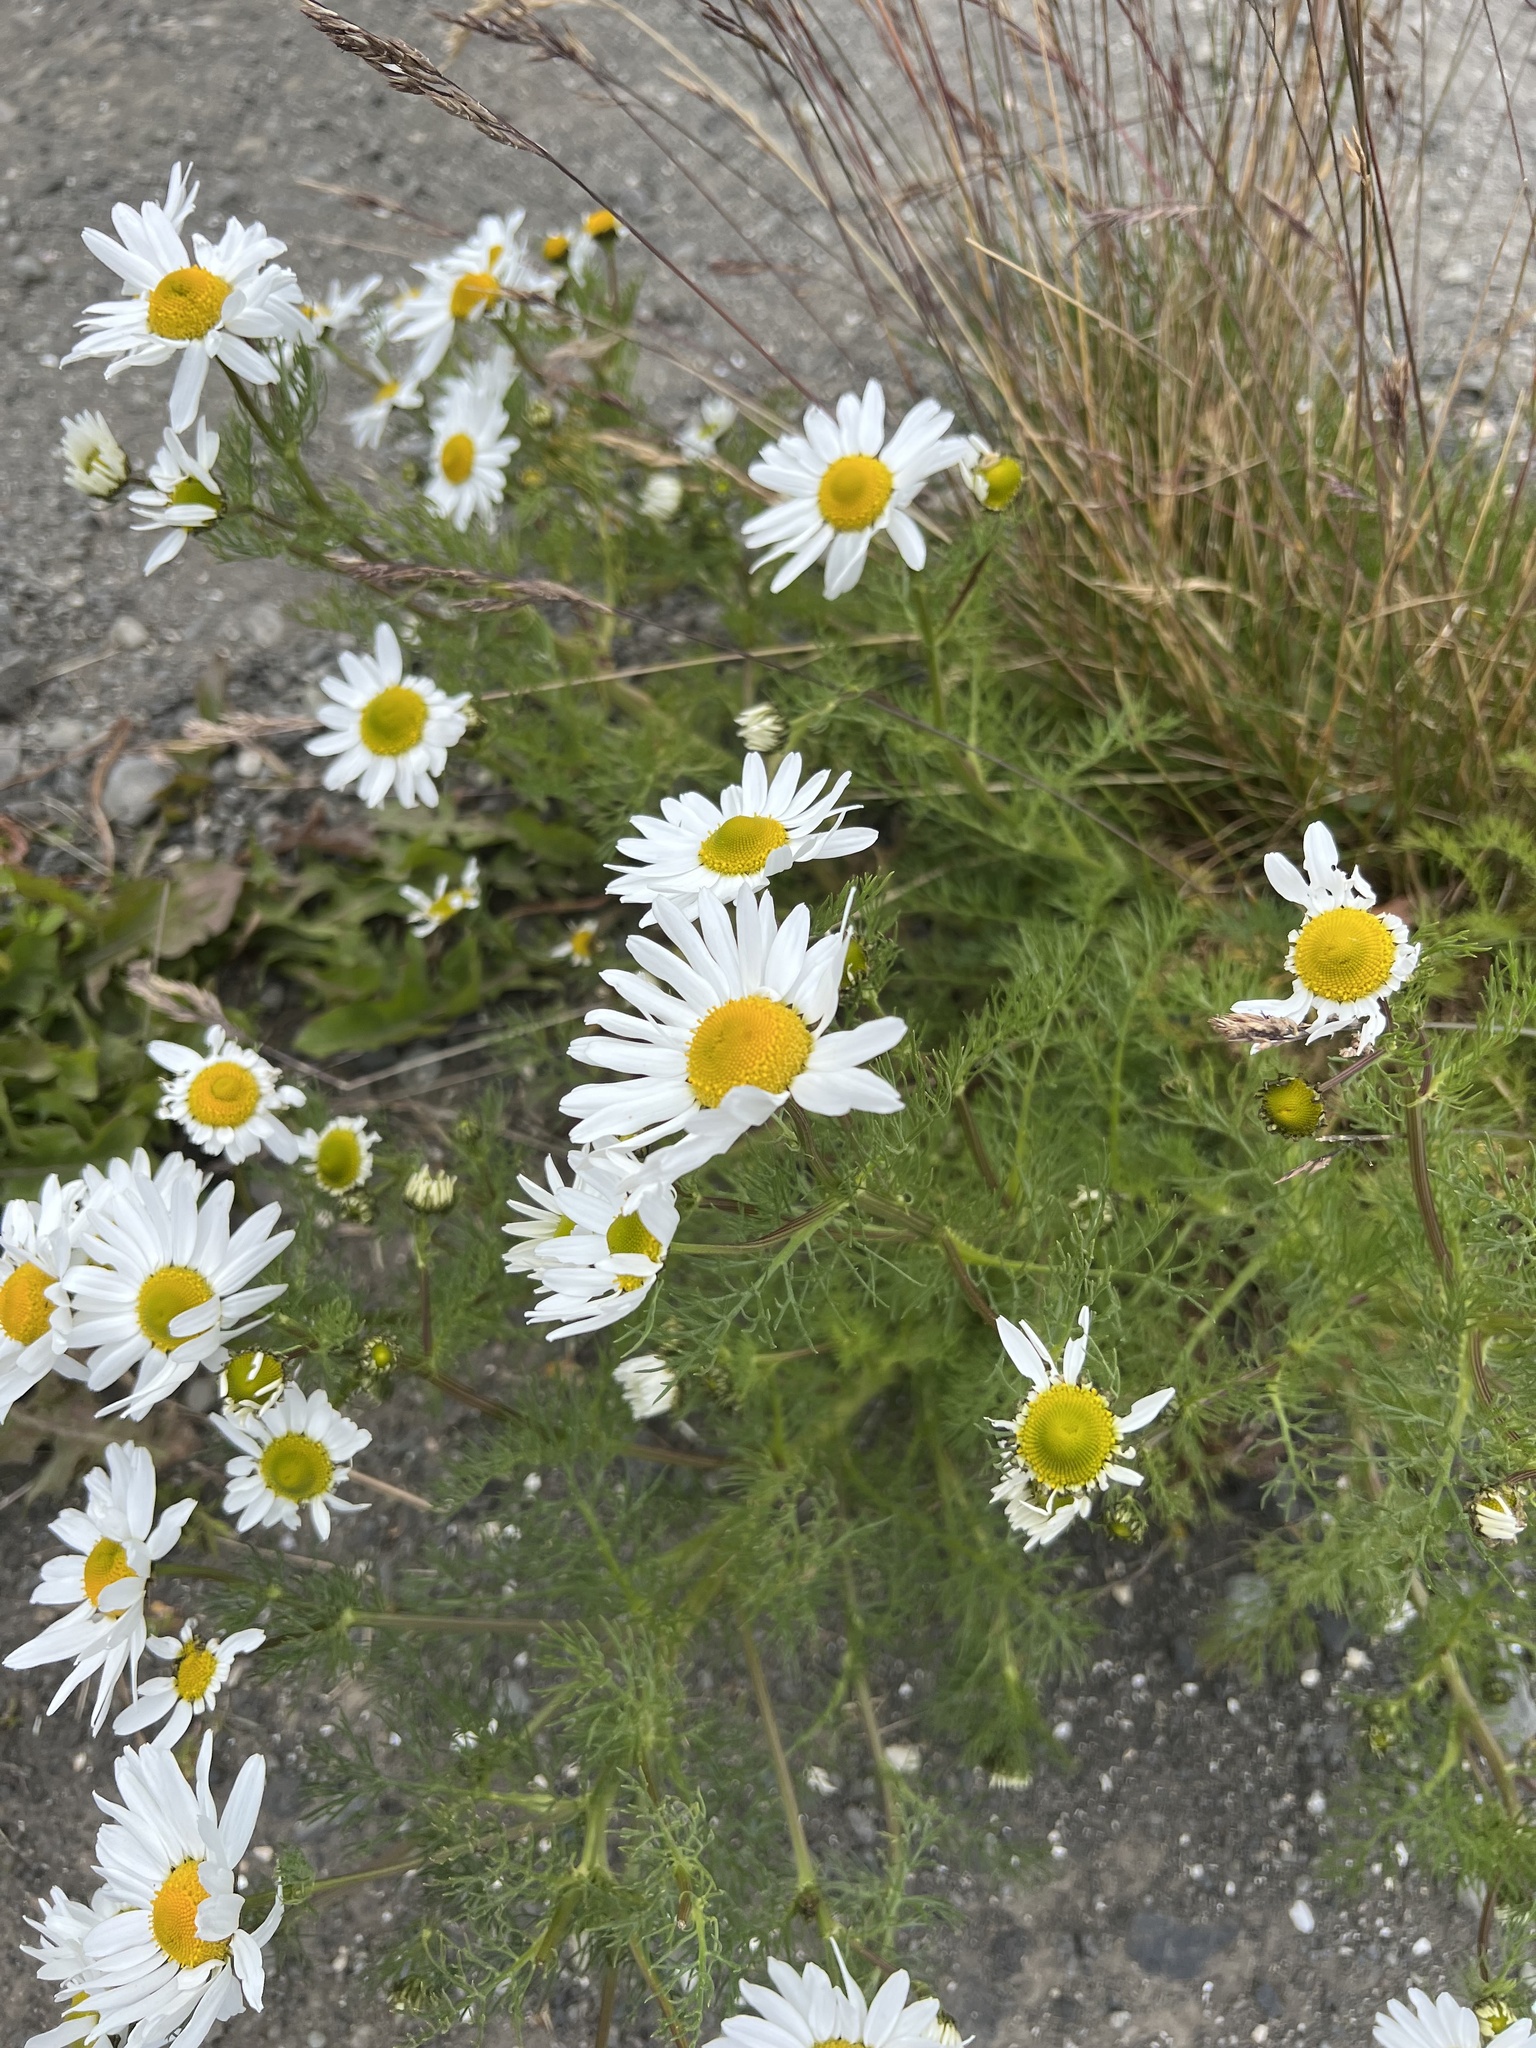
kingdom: Plantae
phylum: Tracheophyta
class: Magnoliopsida
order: Asterales
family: Asteraceae
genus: Tripleurospermum
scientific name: Tripleurospermum maritimum
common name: Sea mayweed
